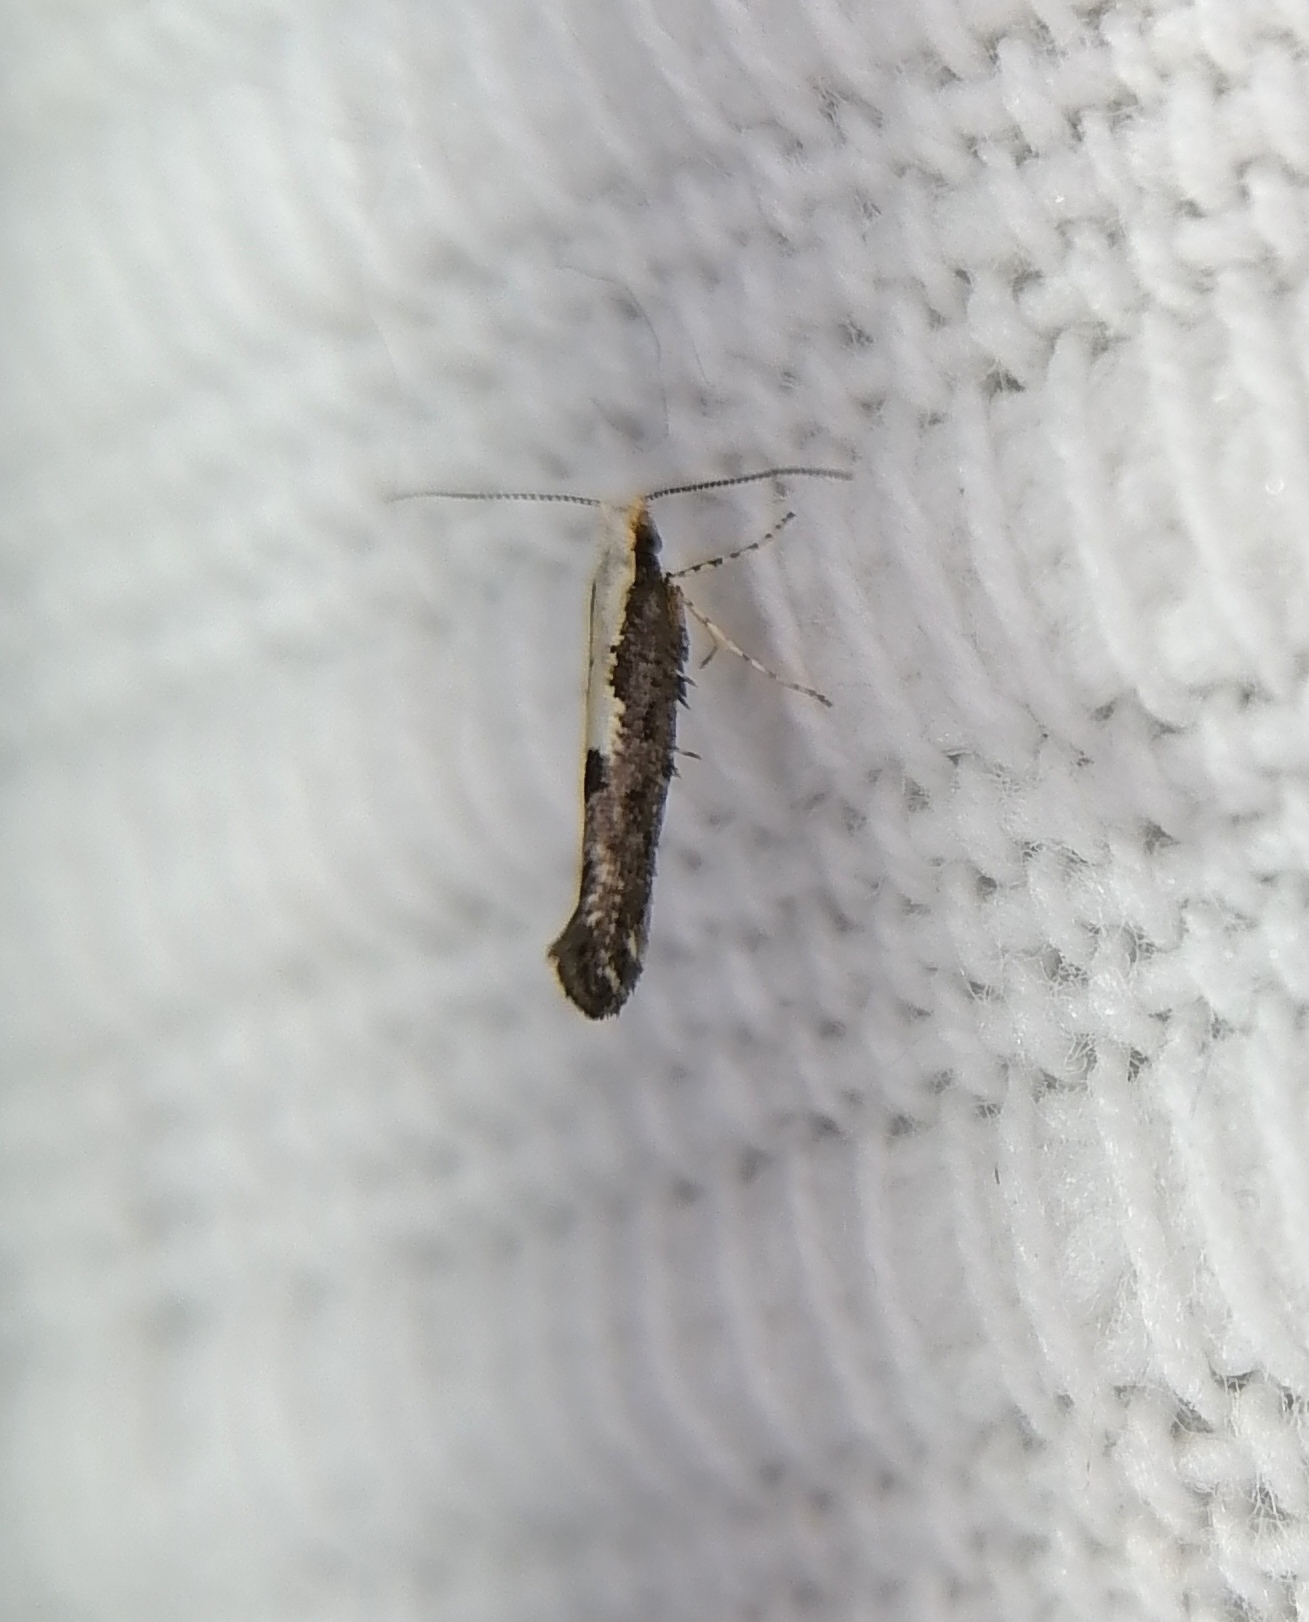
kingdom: Animalia
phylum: Arthropoda
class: Insecta
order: Lepidoptera
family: Argyresthiidae
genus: Argyresthia
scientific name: Argyresthia conjugella
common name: Apple fruit moth
